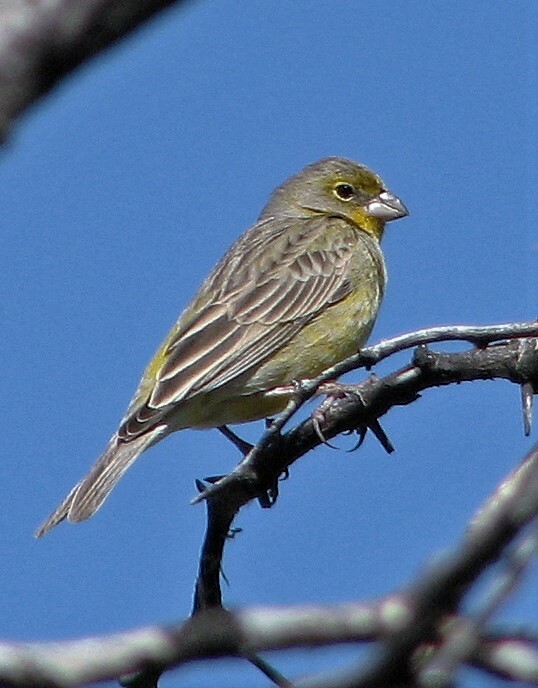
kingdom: Animalia
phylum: Chordata
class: Aves
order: Passeriformes
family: Thraupidae
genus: Sicalis
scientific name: Sicalis luteola
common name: Grassland yellow-finch
